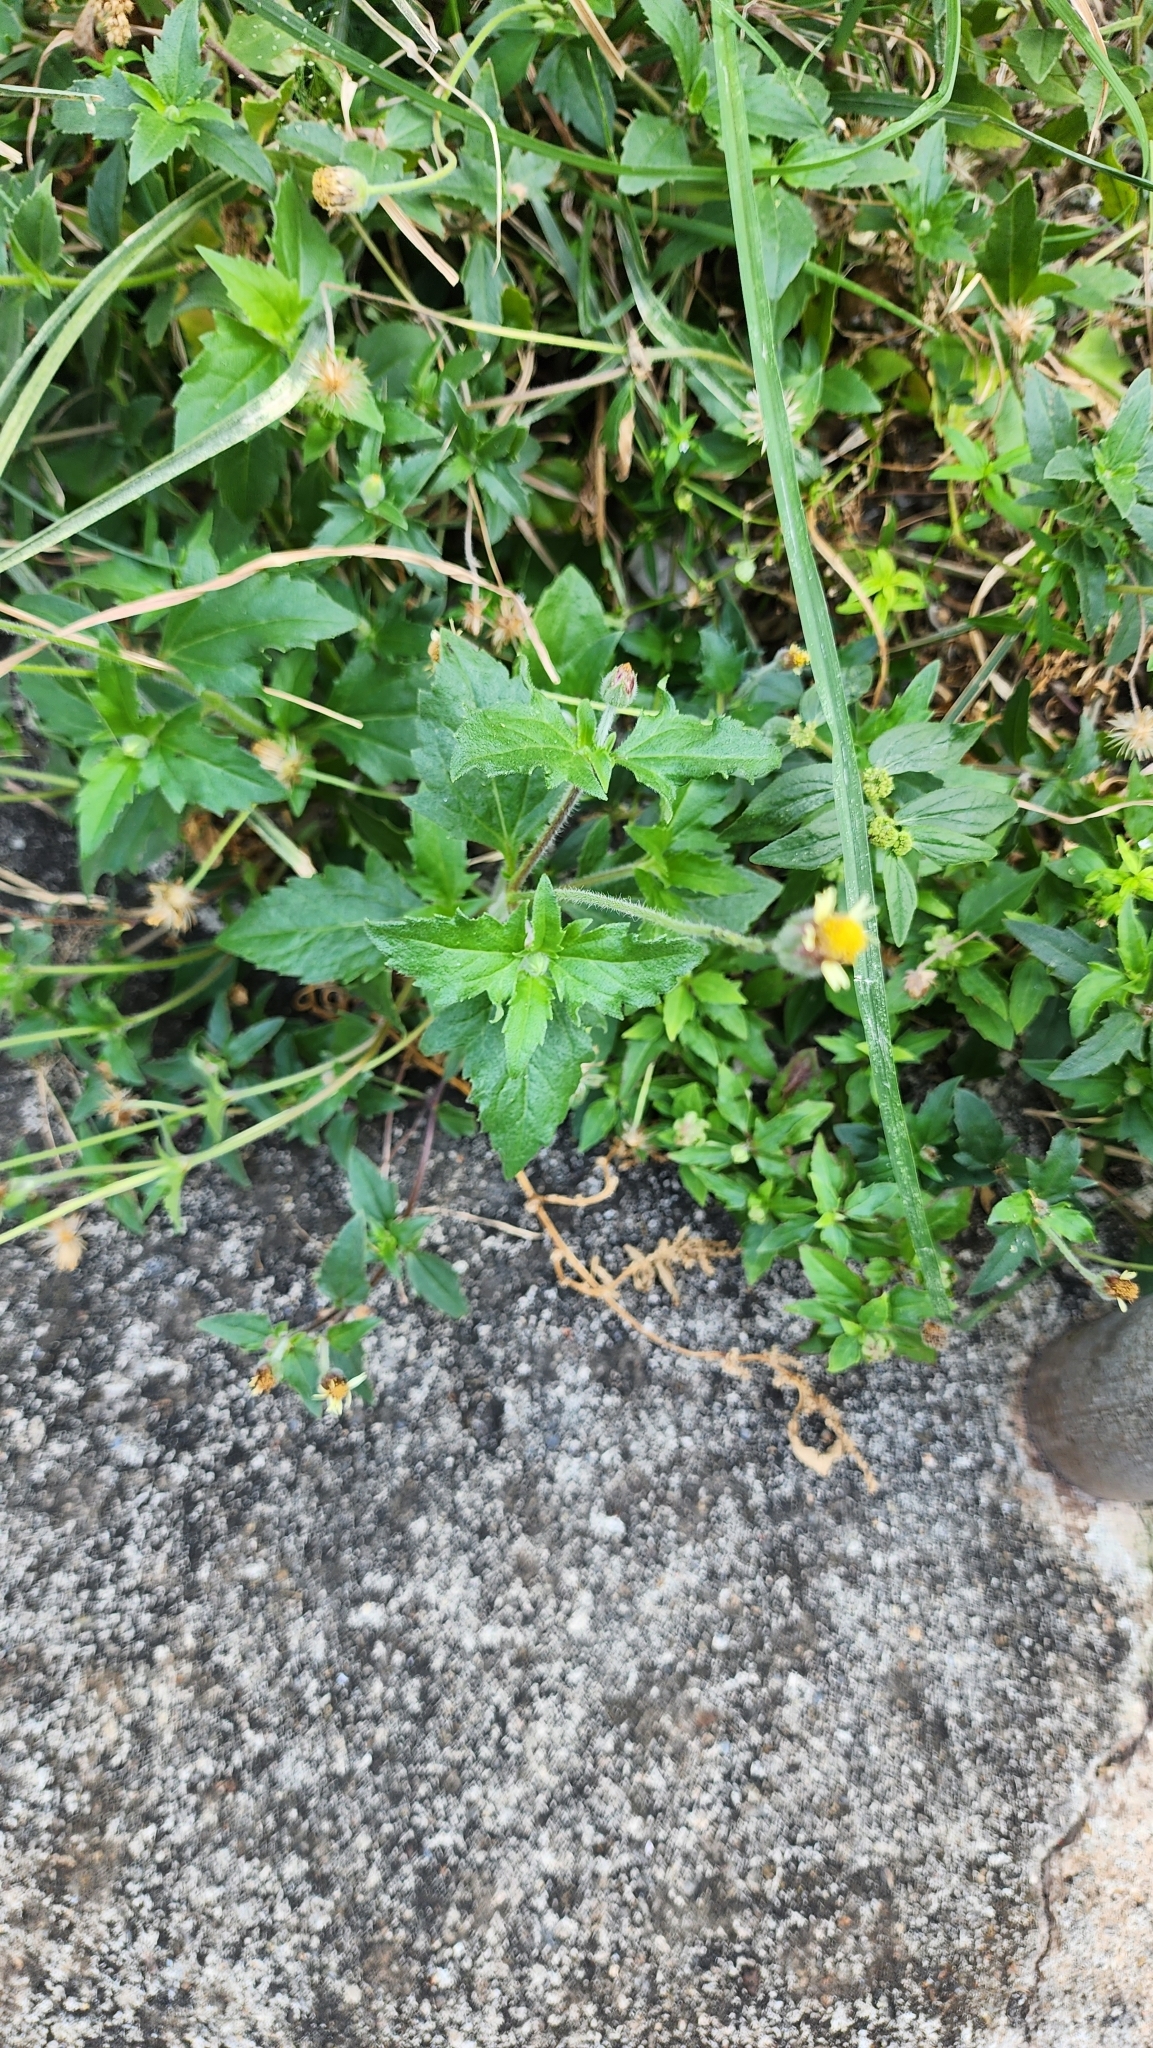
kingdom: Plantae
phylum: Tracheophyta
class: Magnoliopsida
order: Asterales
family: Asteraceae
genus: Tridax
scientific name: Tridax procumbens
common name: Coatbuttons
